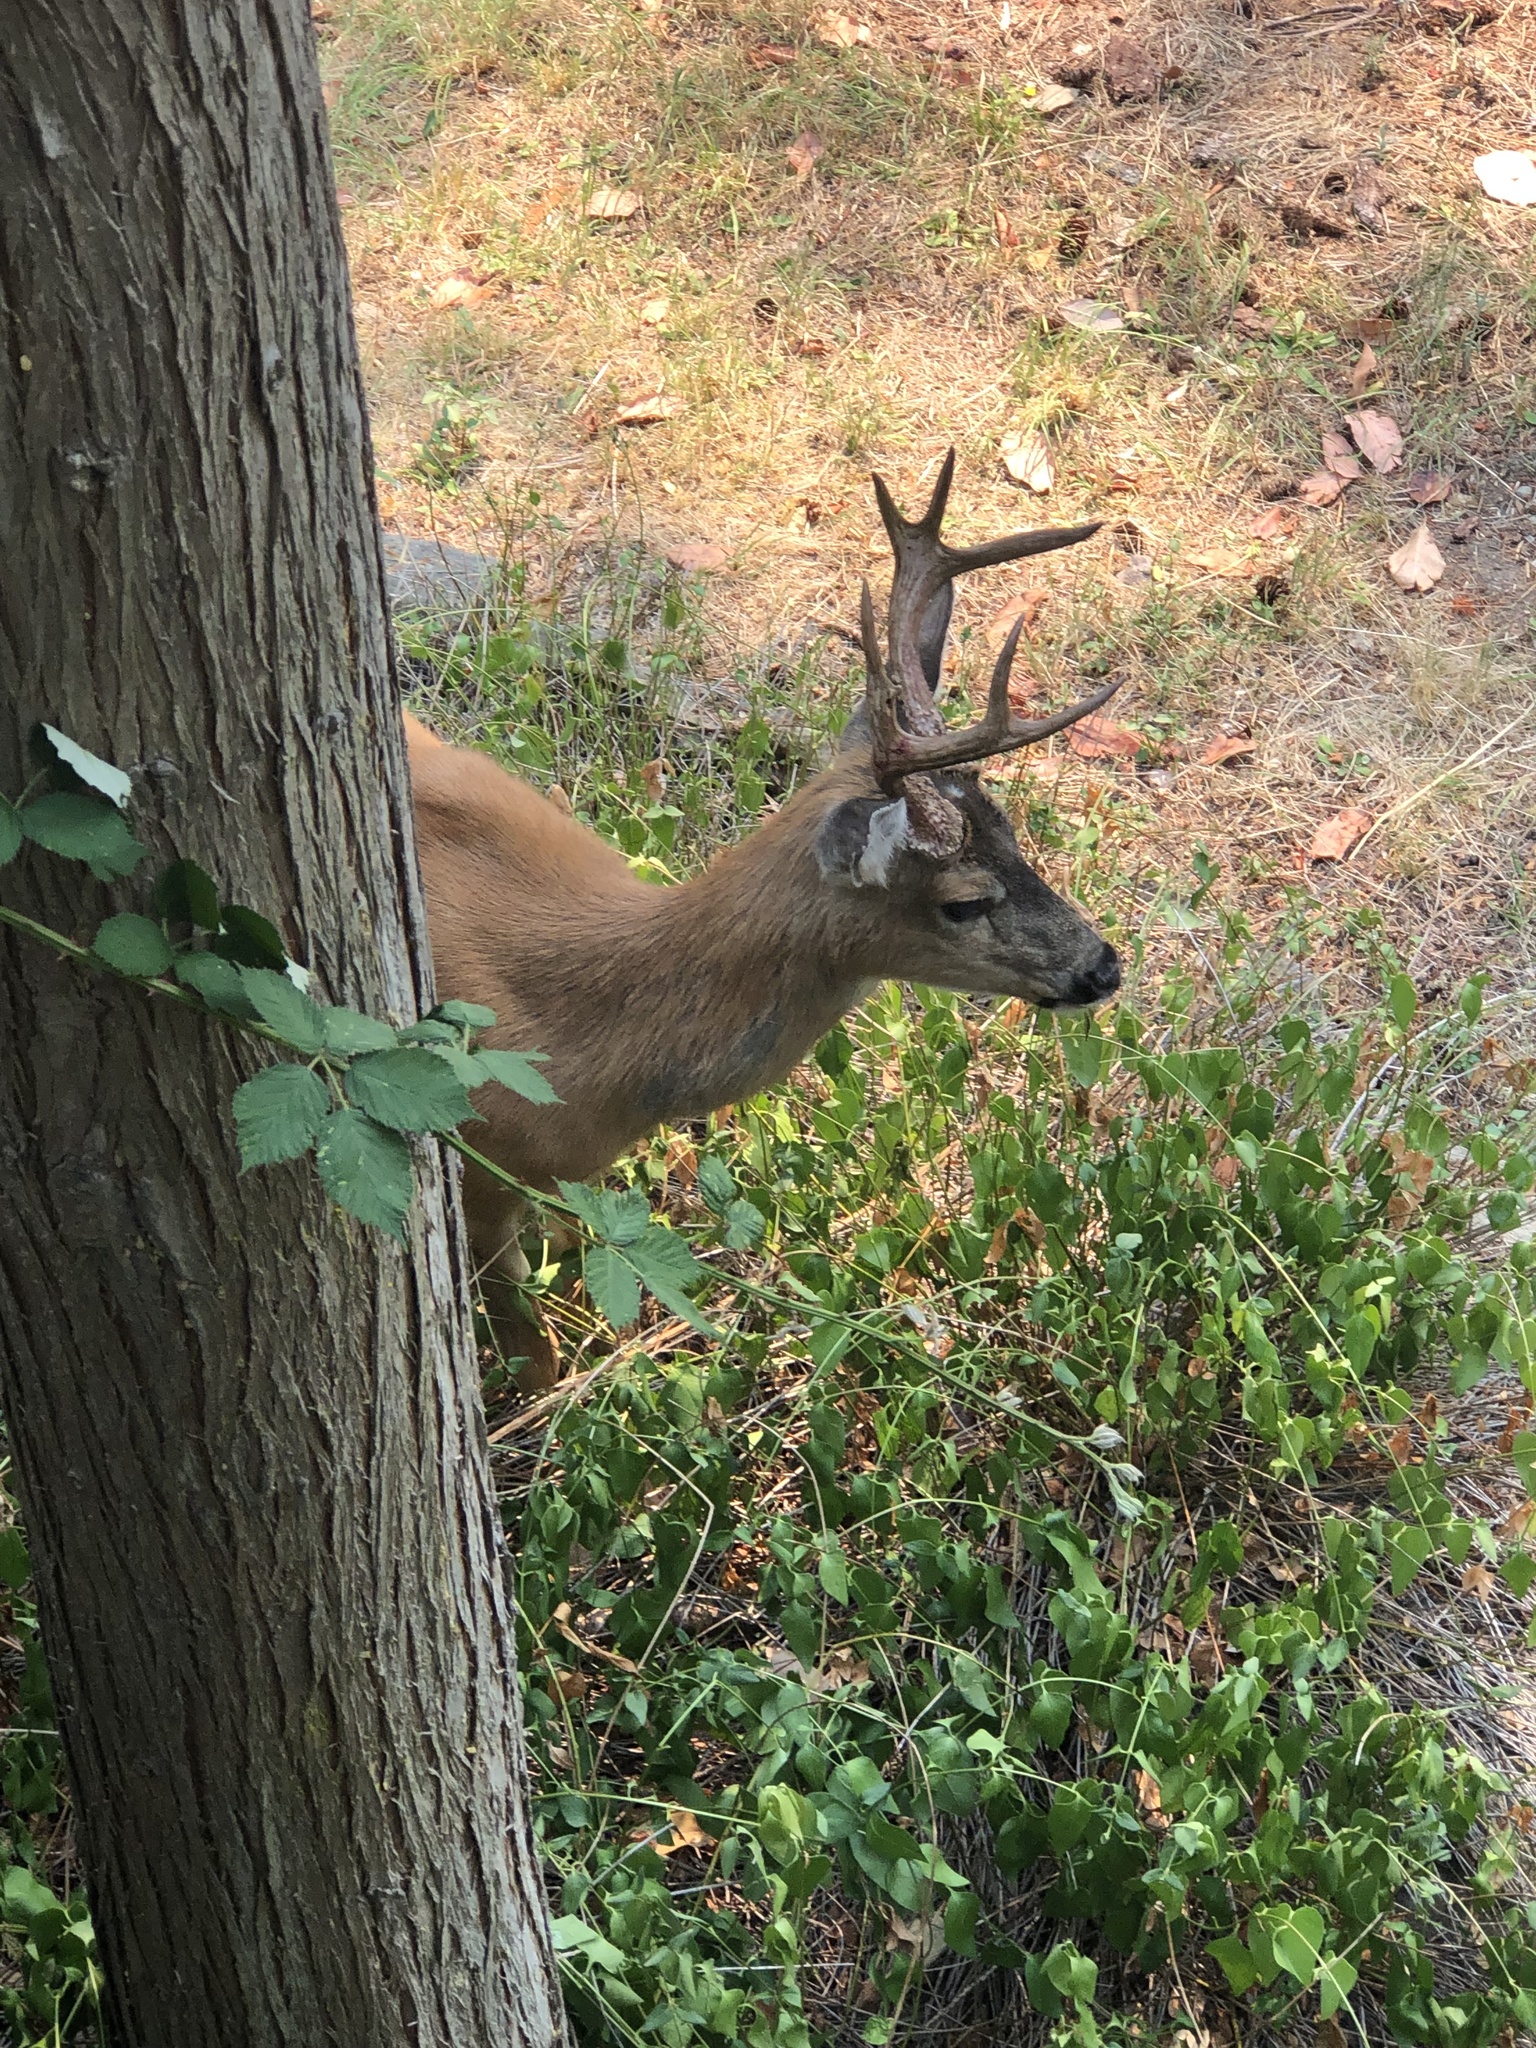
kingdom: Animalia
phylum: Chordata
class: Mammalia
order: Artiodactyla
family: Cervidae
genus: Odocoileus
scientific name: Odocoileus hemionus
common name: Mule deer
